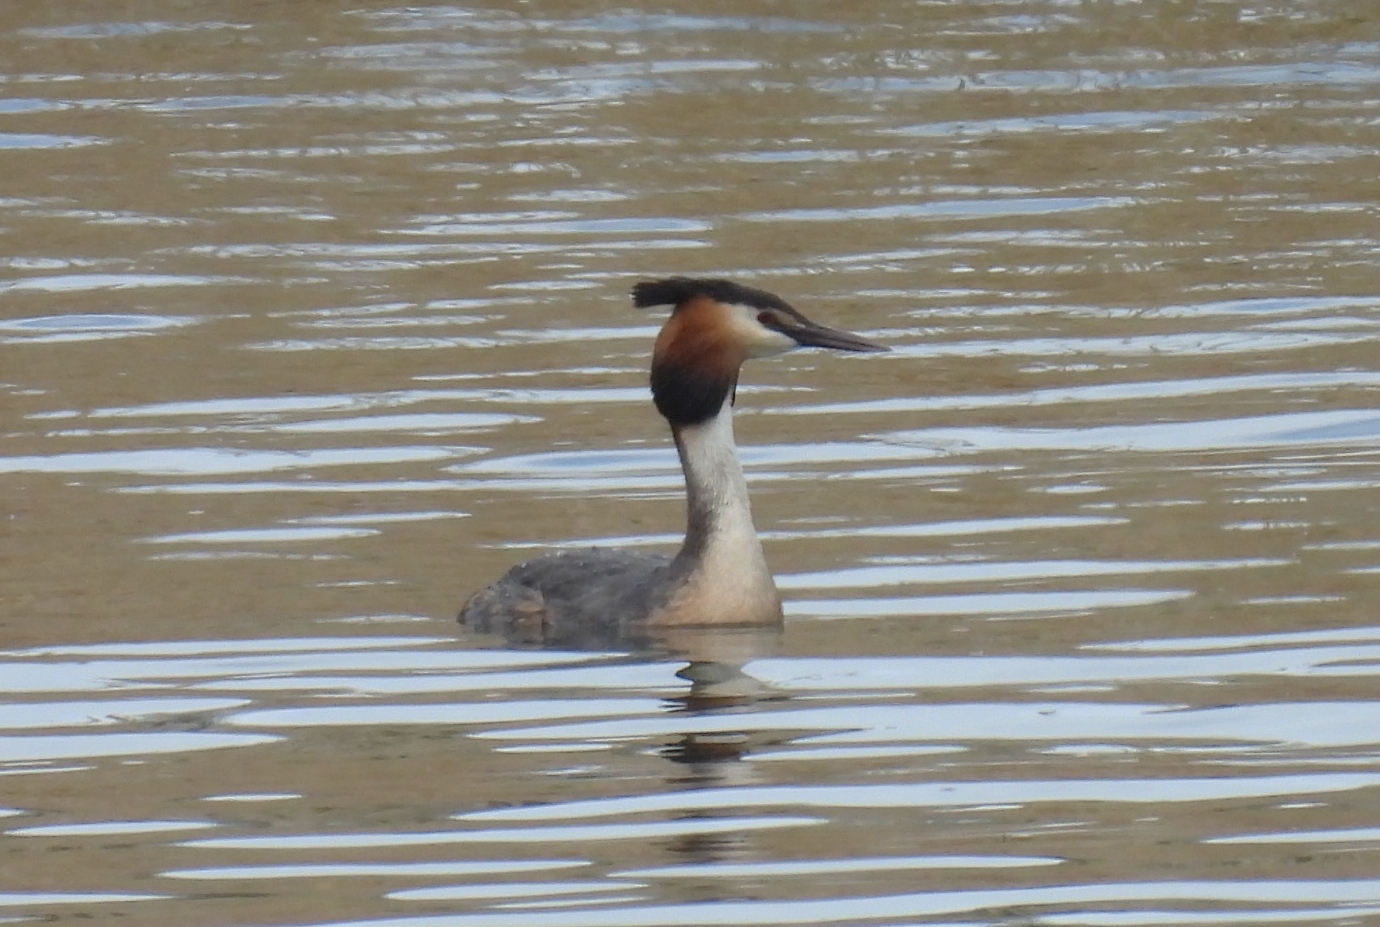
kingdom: Animalia
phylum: Chordata
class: Aves
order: Podicipediformes
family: Podicipedidae
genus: Podiceps
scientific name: Podiceps cristatus
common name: Great crested grebe
